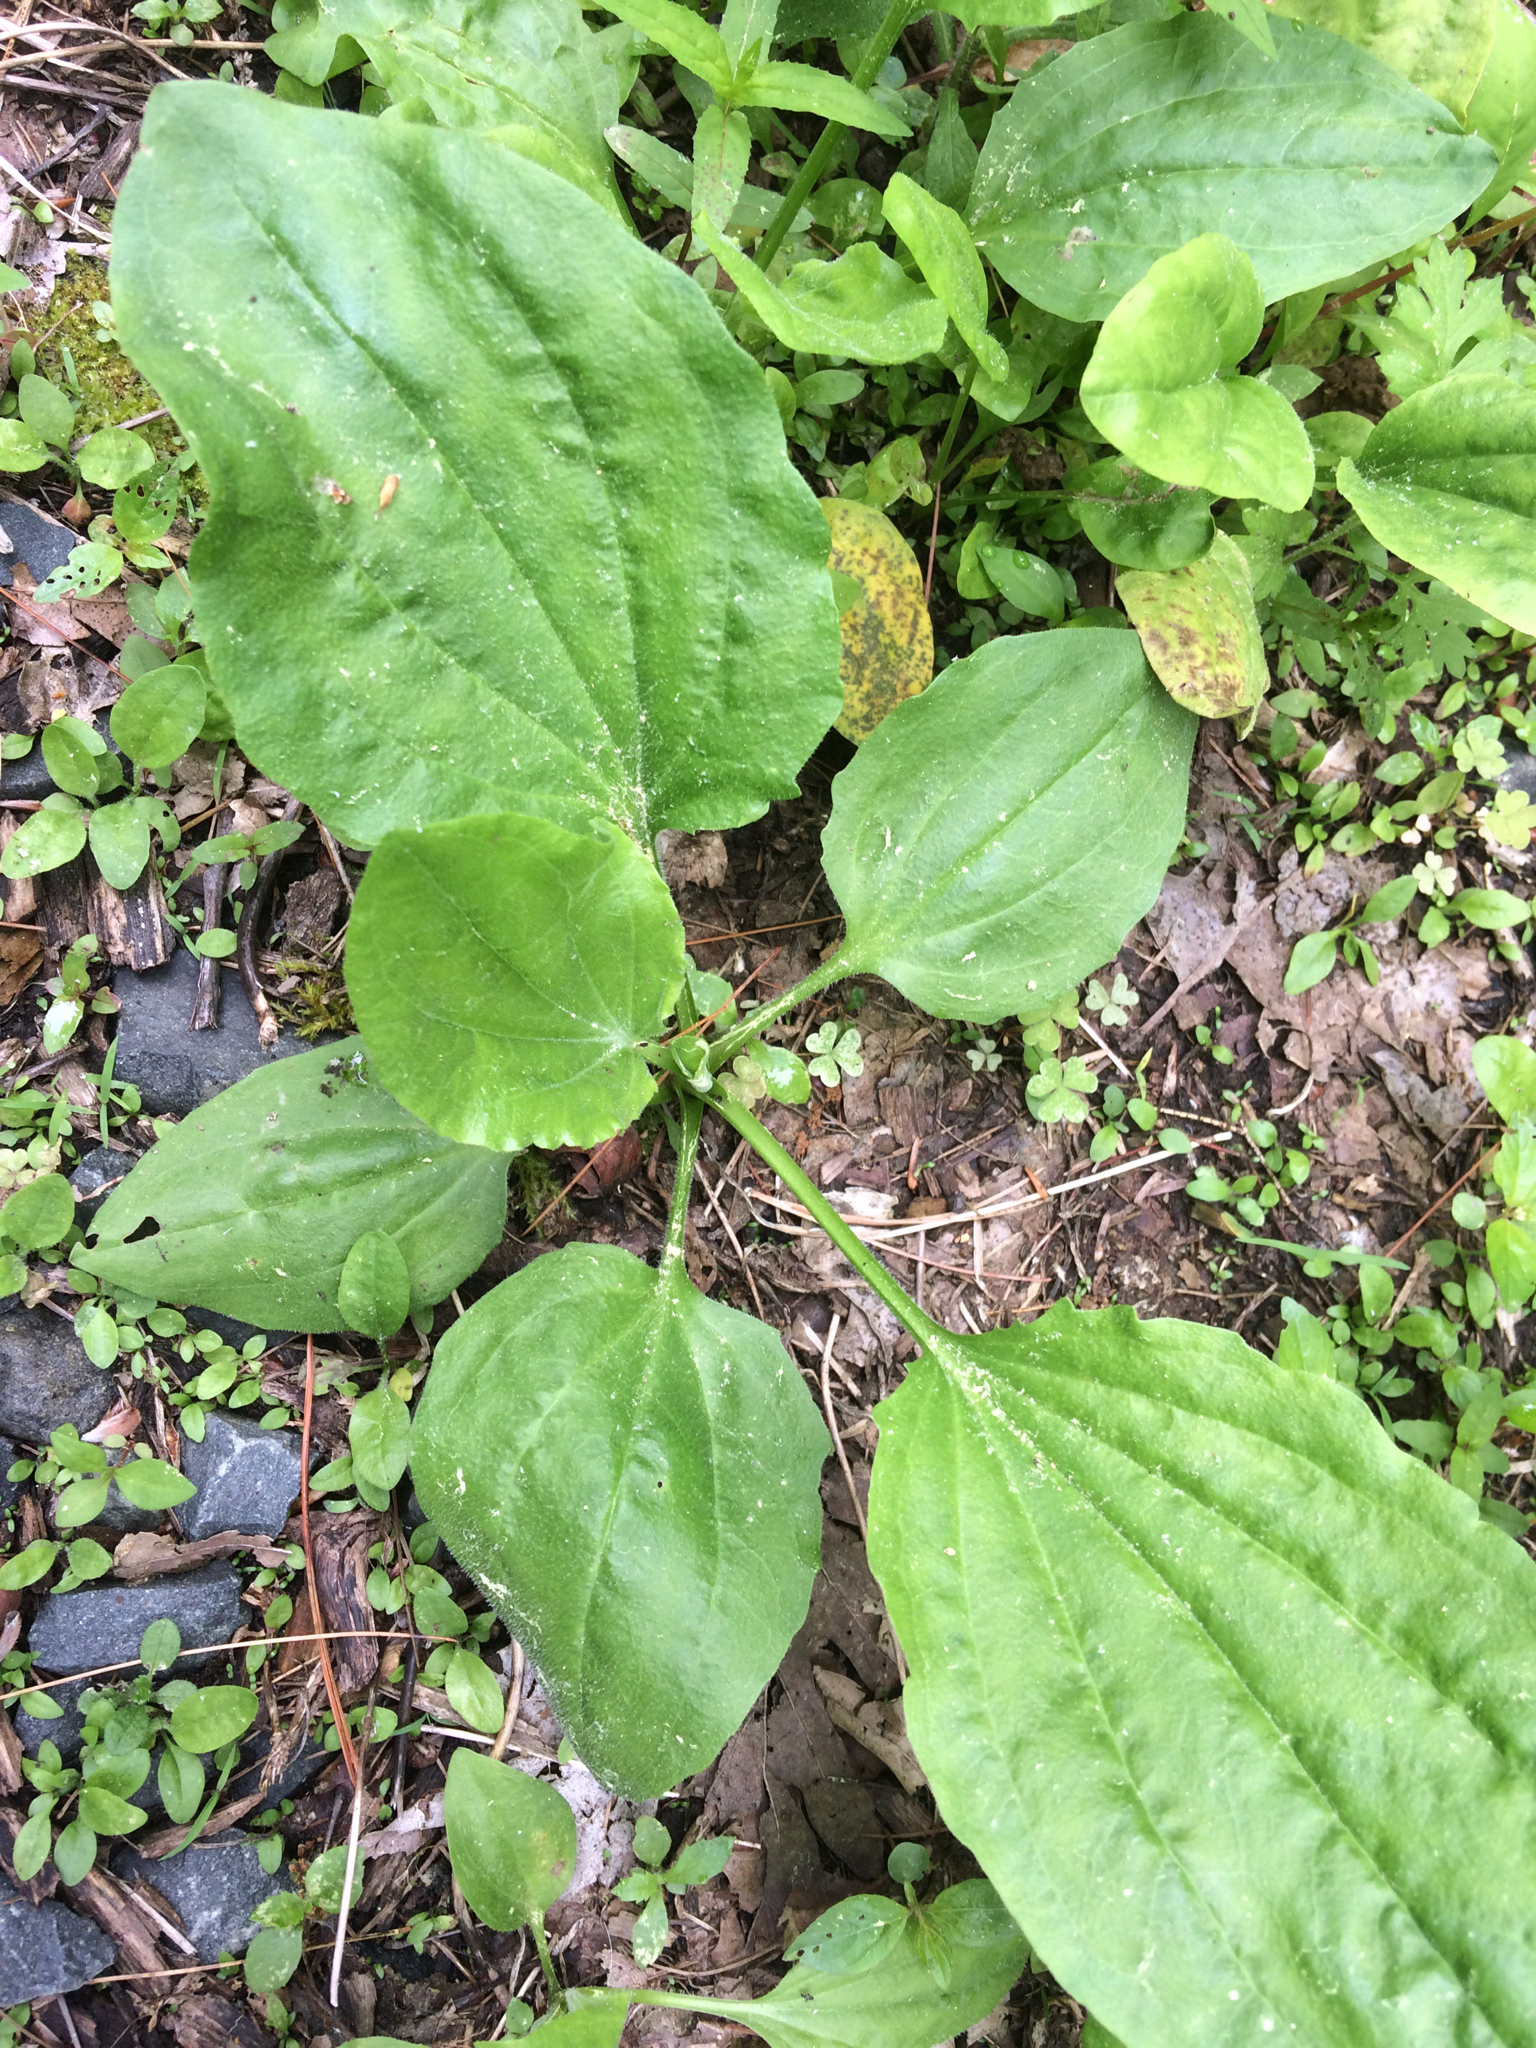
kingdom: Plantae
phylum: Tracheophyta
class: Magnoliopsida
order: Lamiales
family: Plantaginaceae
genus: Plantago
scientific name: Plantago major
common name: Common plantain
